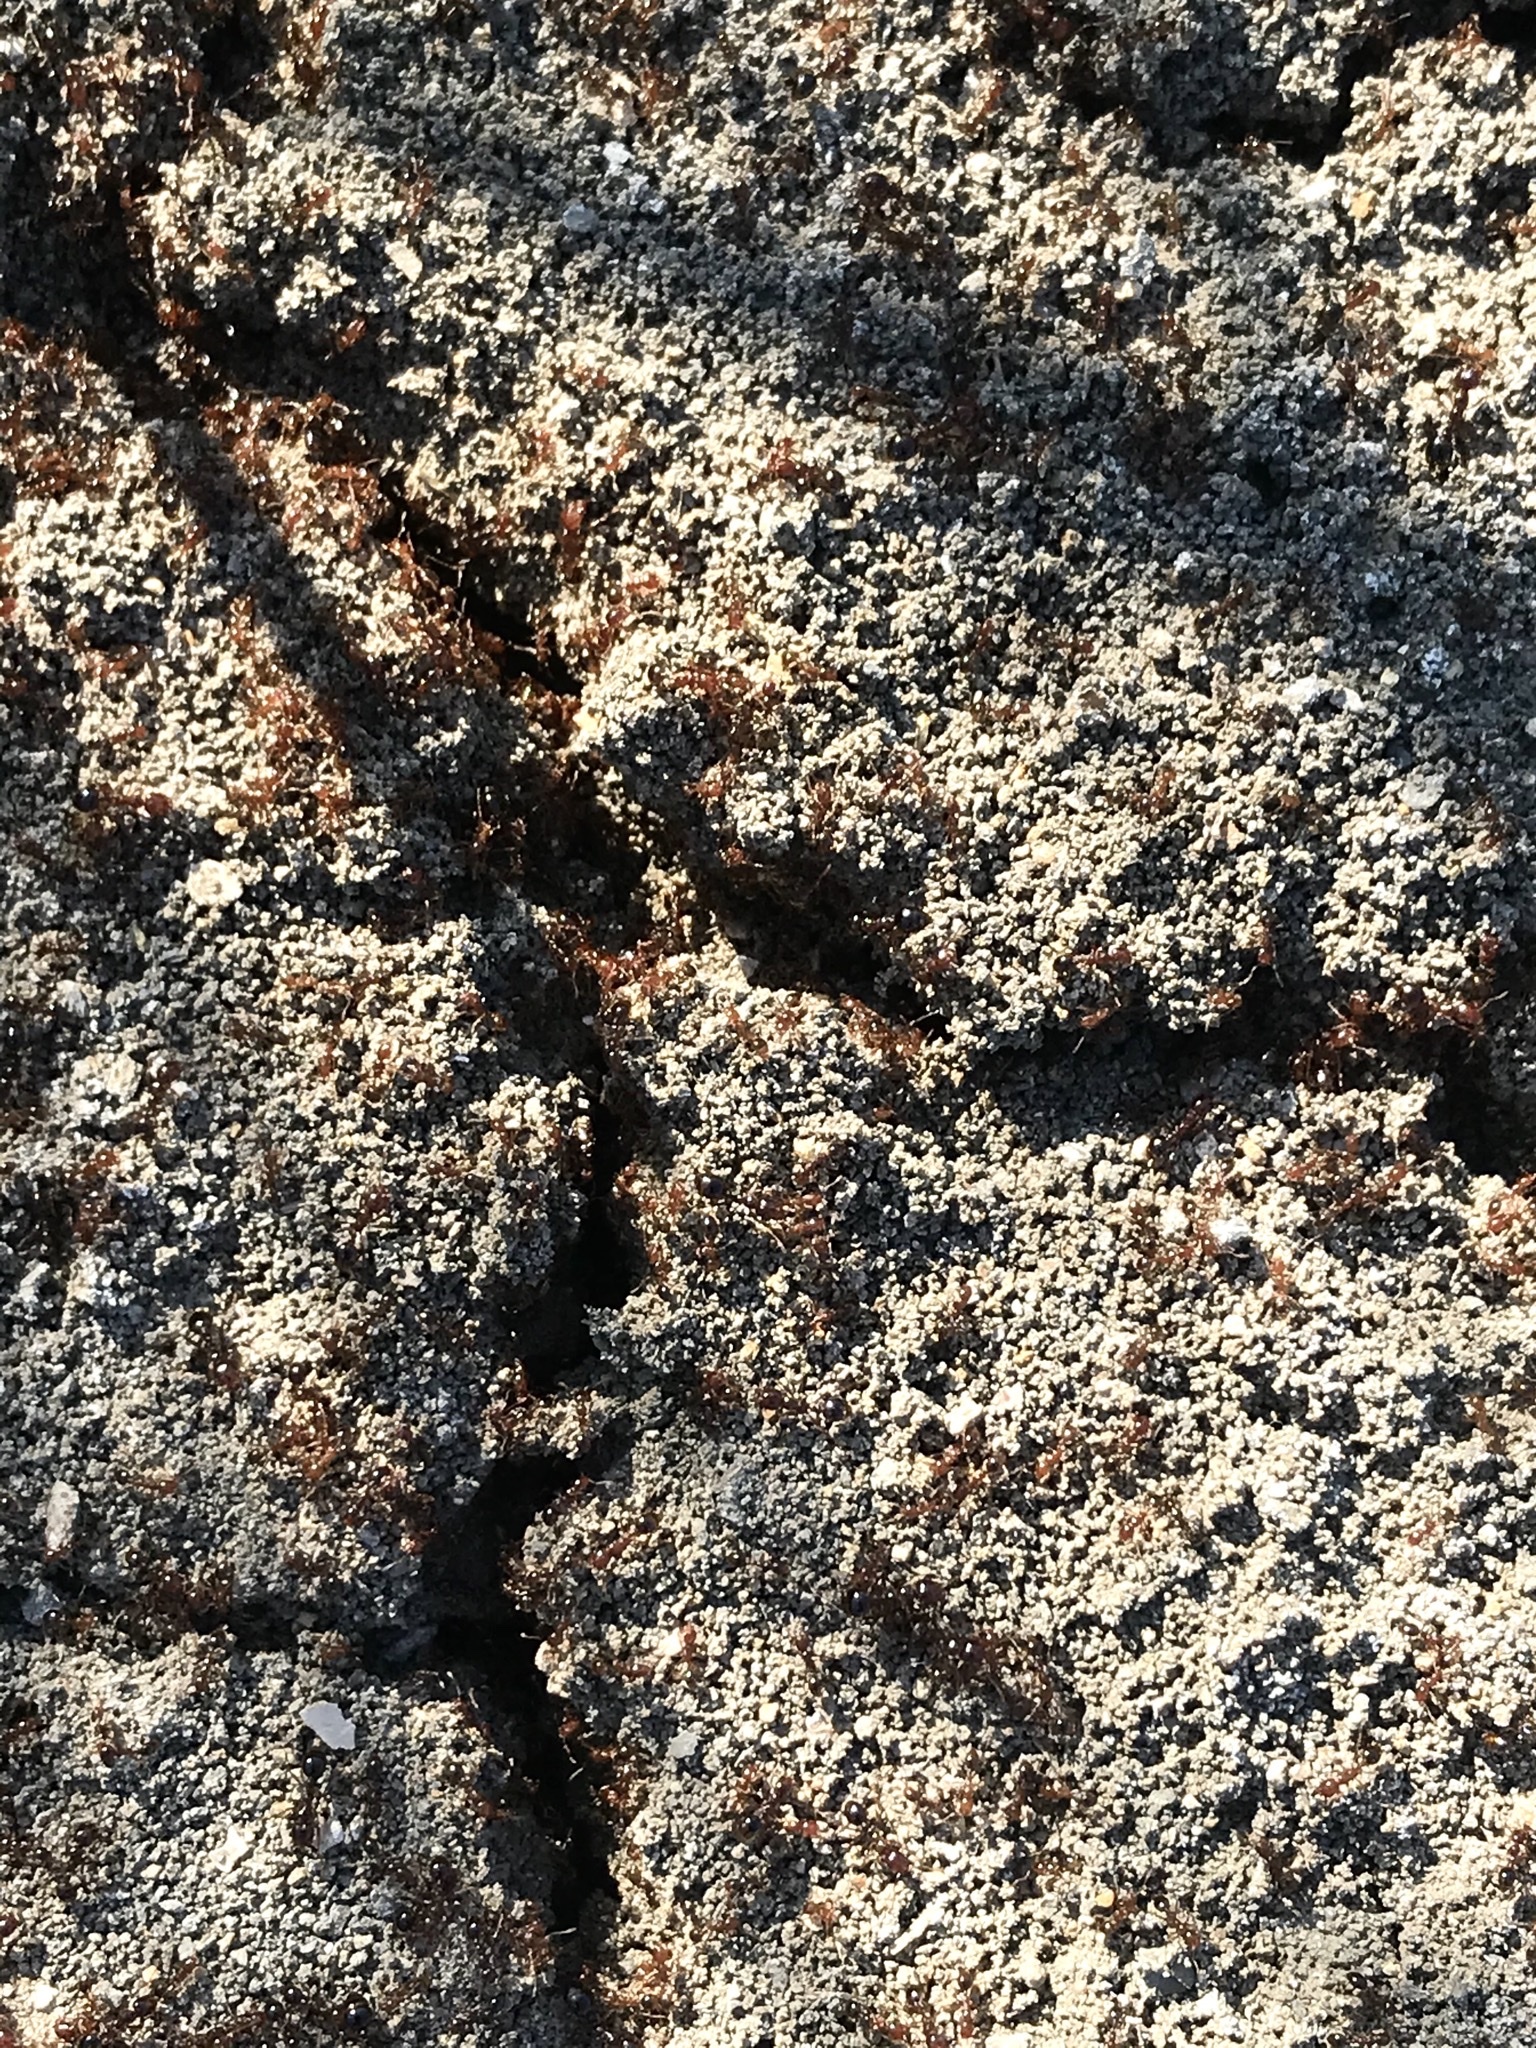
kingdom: Animalia
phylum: Arthropoda
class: Insecta
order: Hymenoptera
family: Formicidae
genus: Solenopsis
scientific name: Solenopsis invicta
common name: Red imported fire ant
